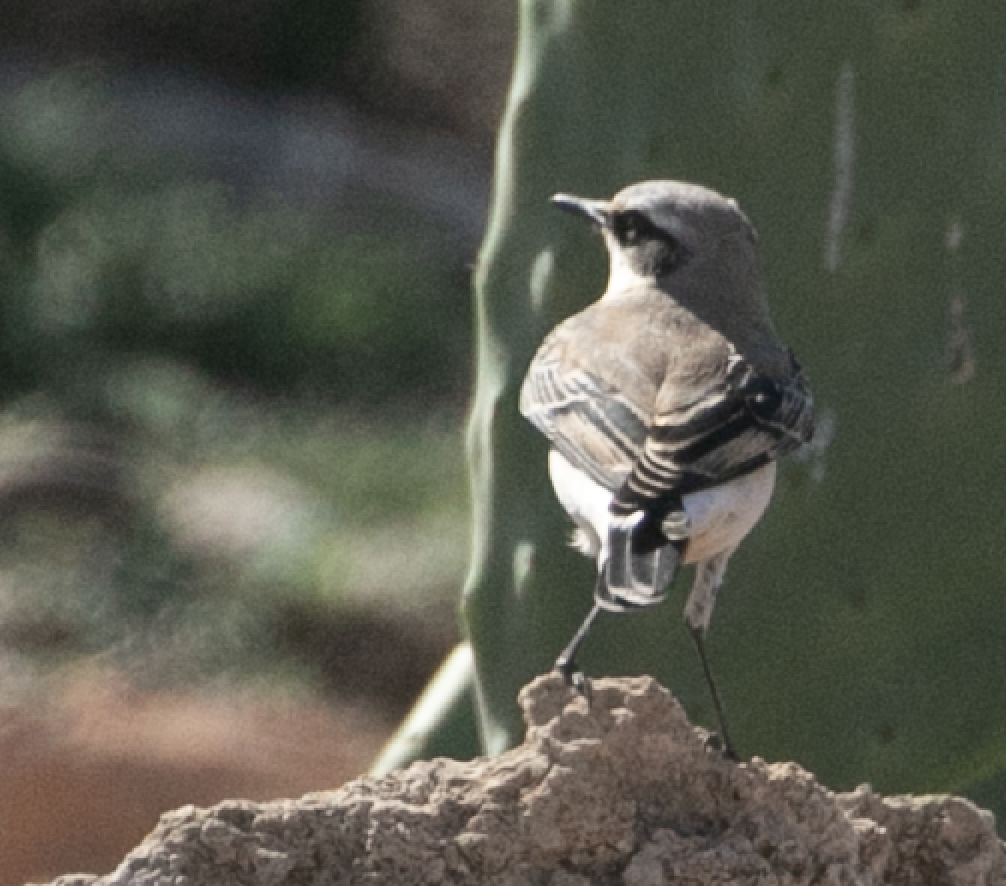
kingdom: Animalia
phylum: Chordata
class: Aves
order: Passeriformes
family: Muscicapidae
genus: Oenanthe
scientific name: Oenanthe oenanthe
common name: Northern wheatear
